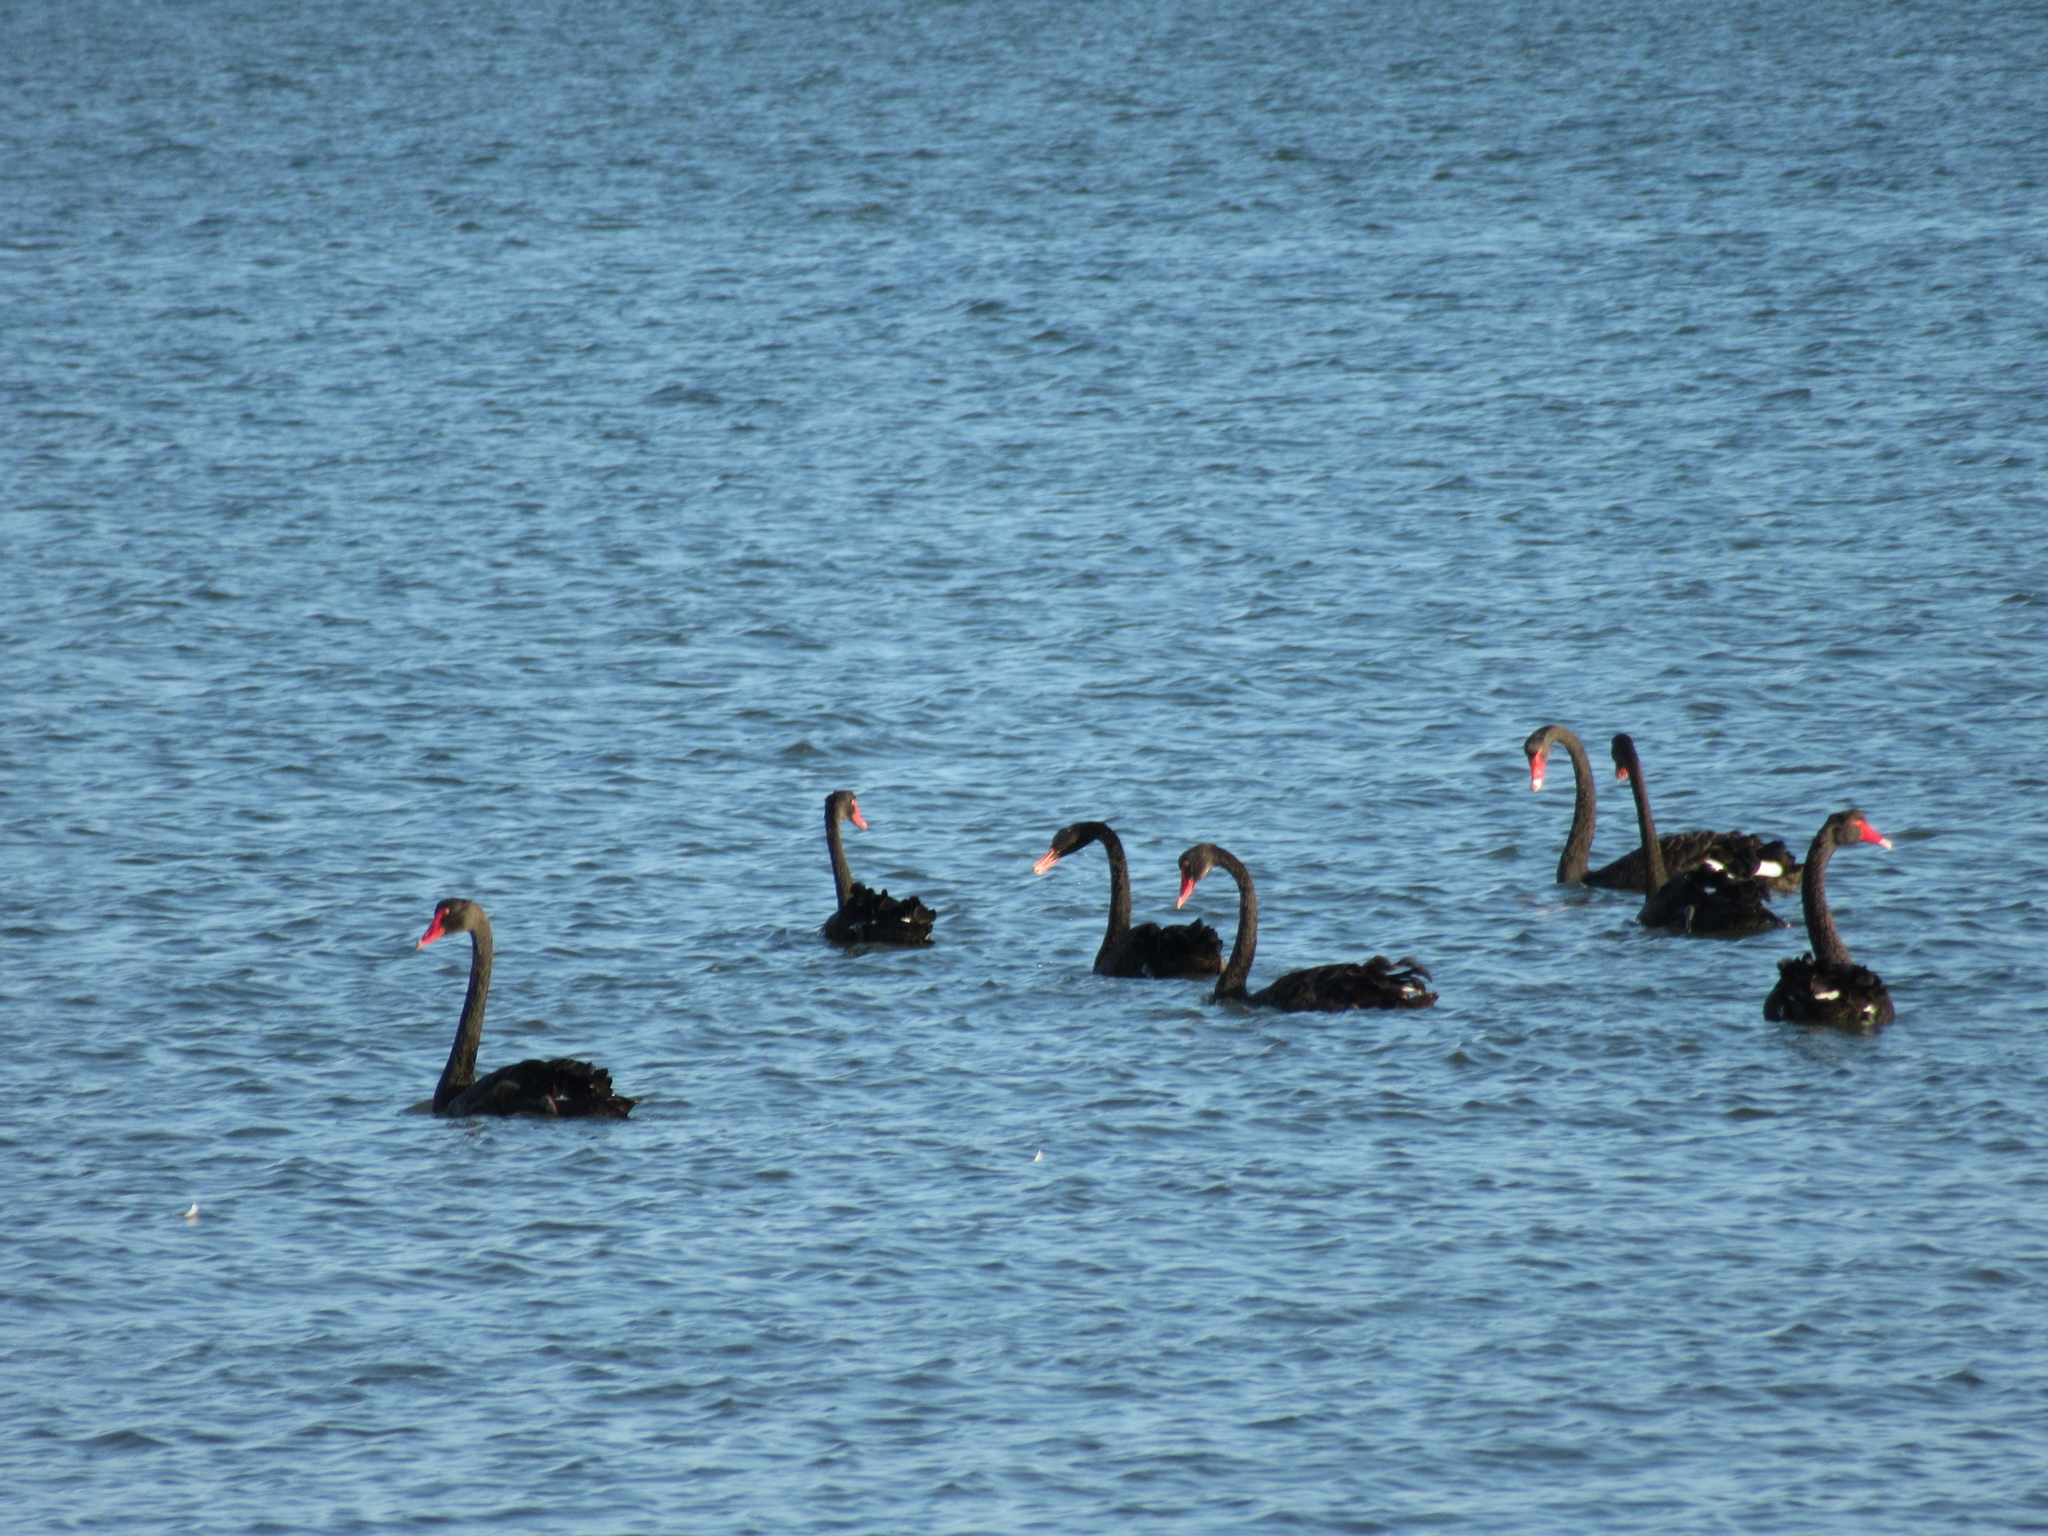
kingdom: Animalia
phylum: Chordata
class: Aves
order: Anseriformes
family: Anatidae
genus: Cygnus
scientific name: Cygnus atratus
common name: Black swan
